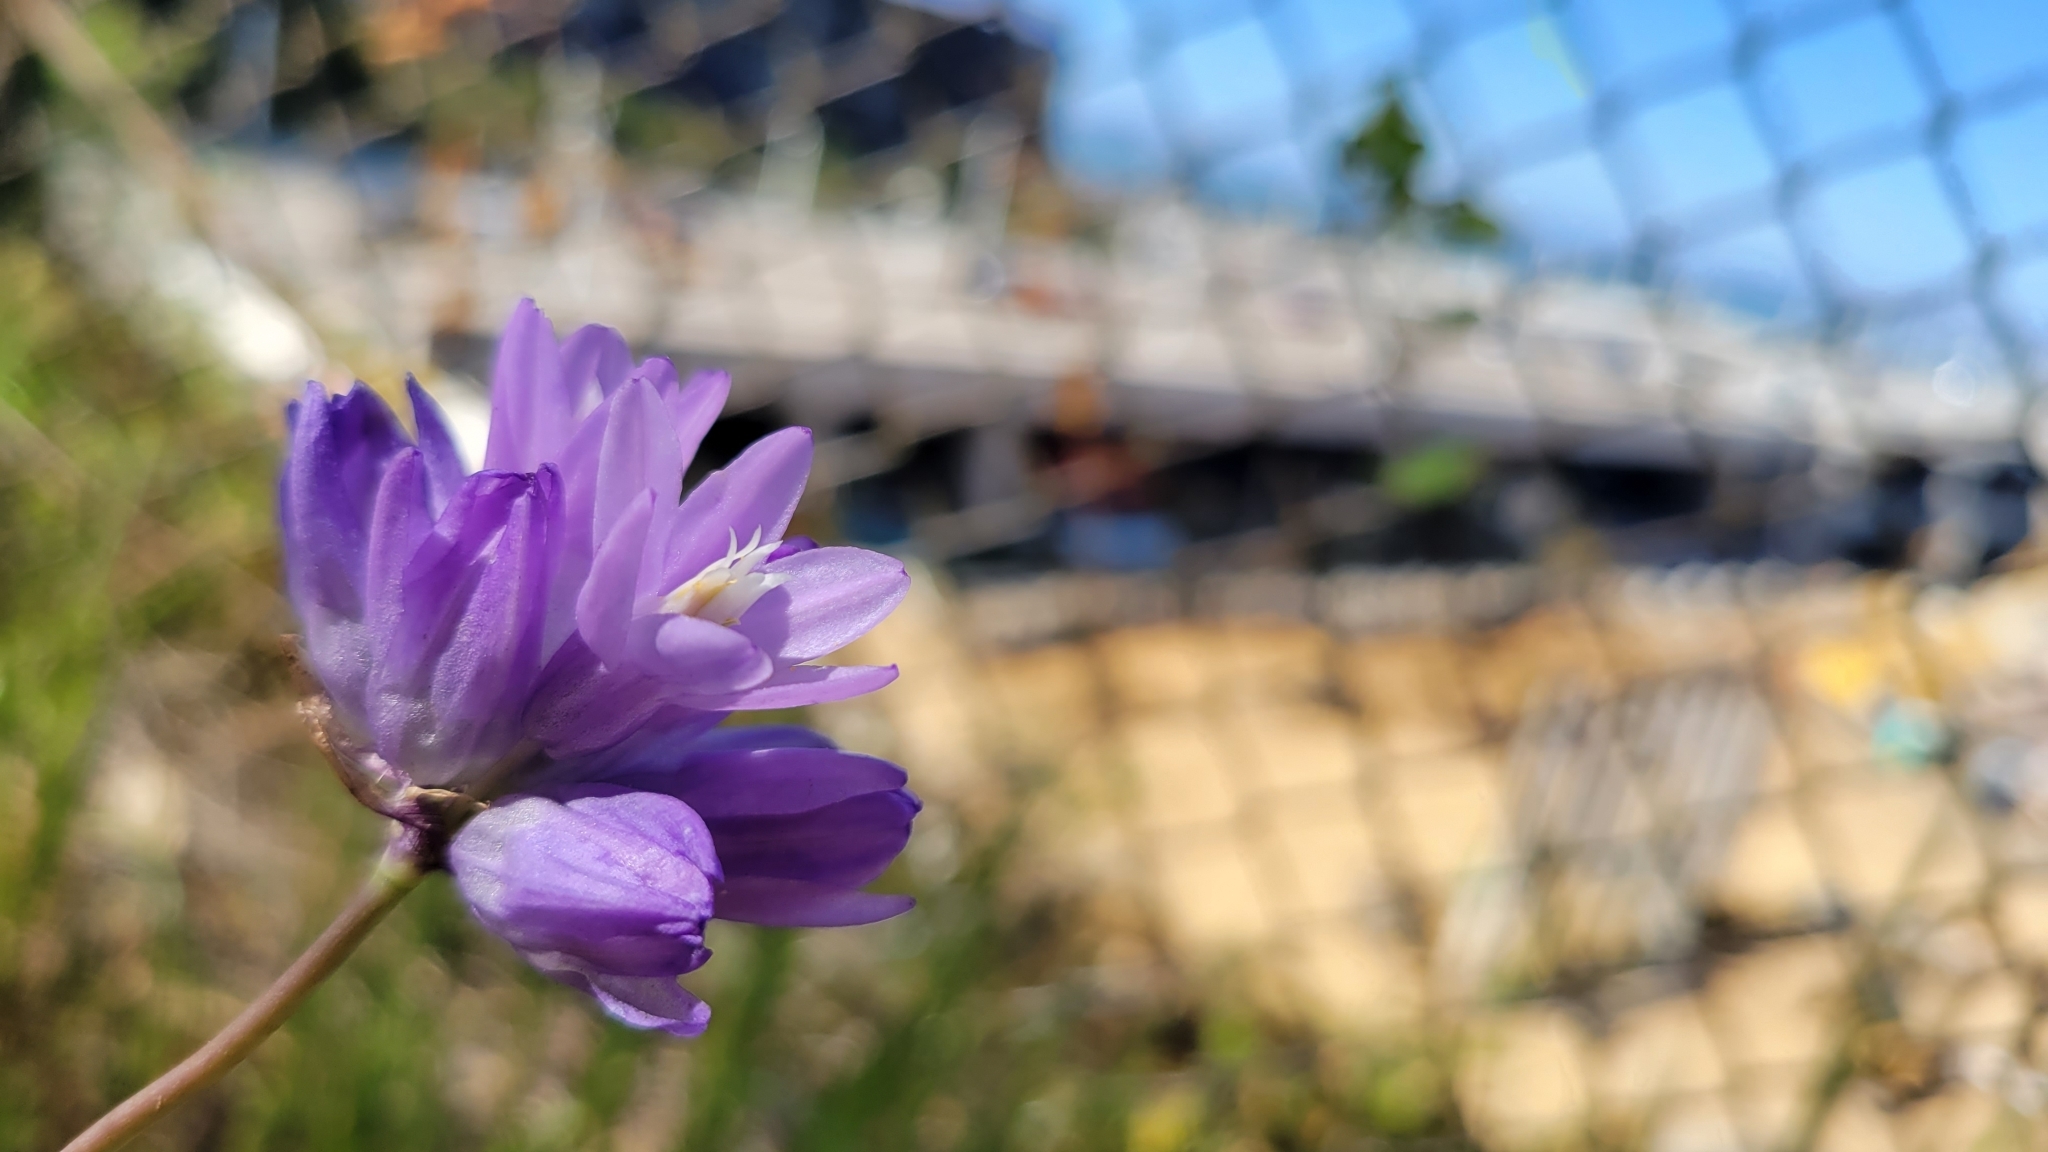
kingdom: Plantae
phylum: Tracheophyta
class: Liliopsida
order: Asparagales
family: Asparagaceae
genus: Dipterostemon
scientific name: Dipterostemon capitatus
